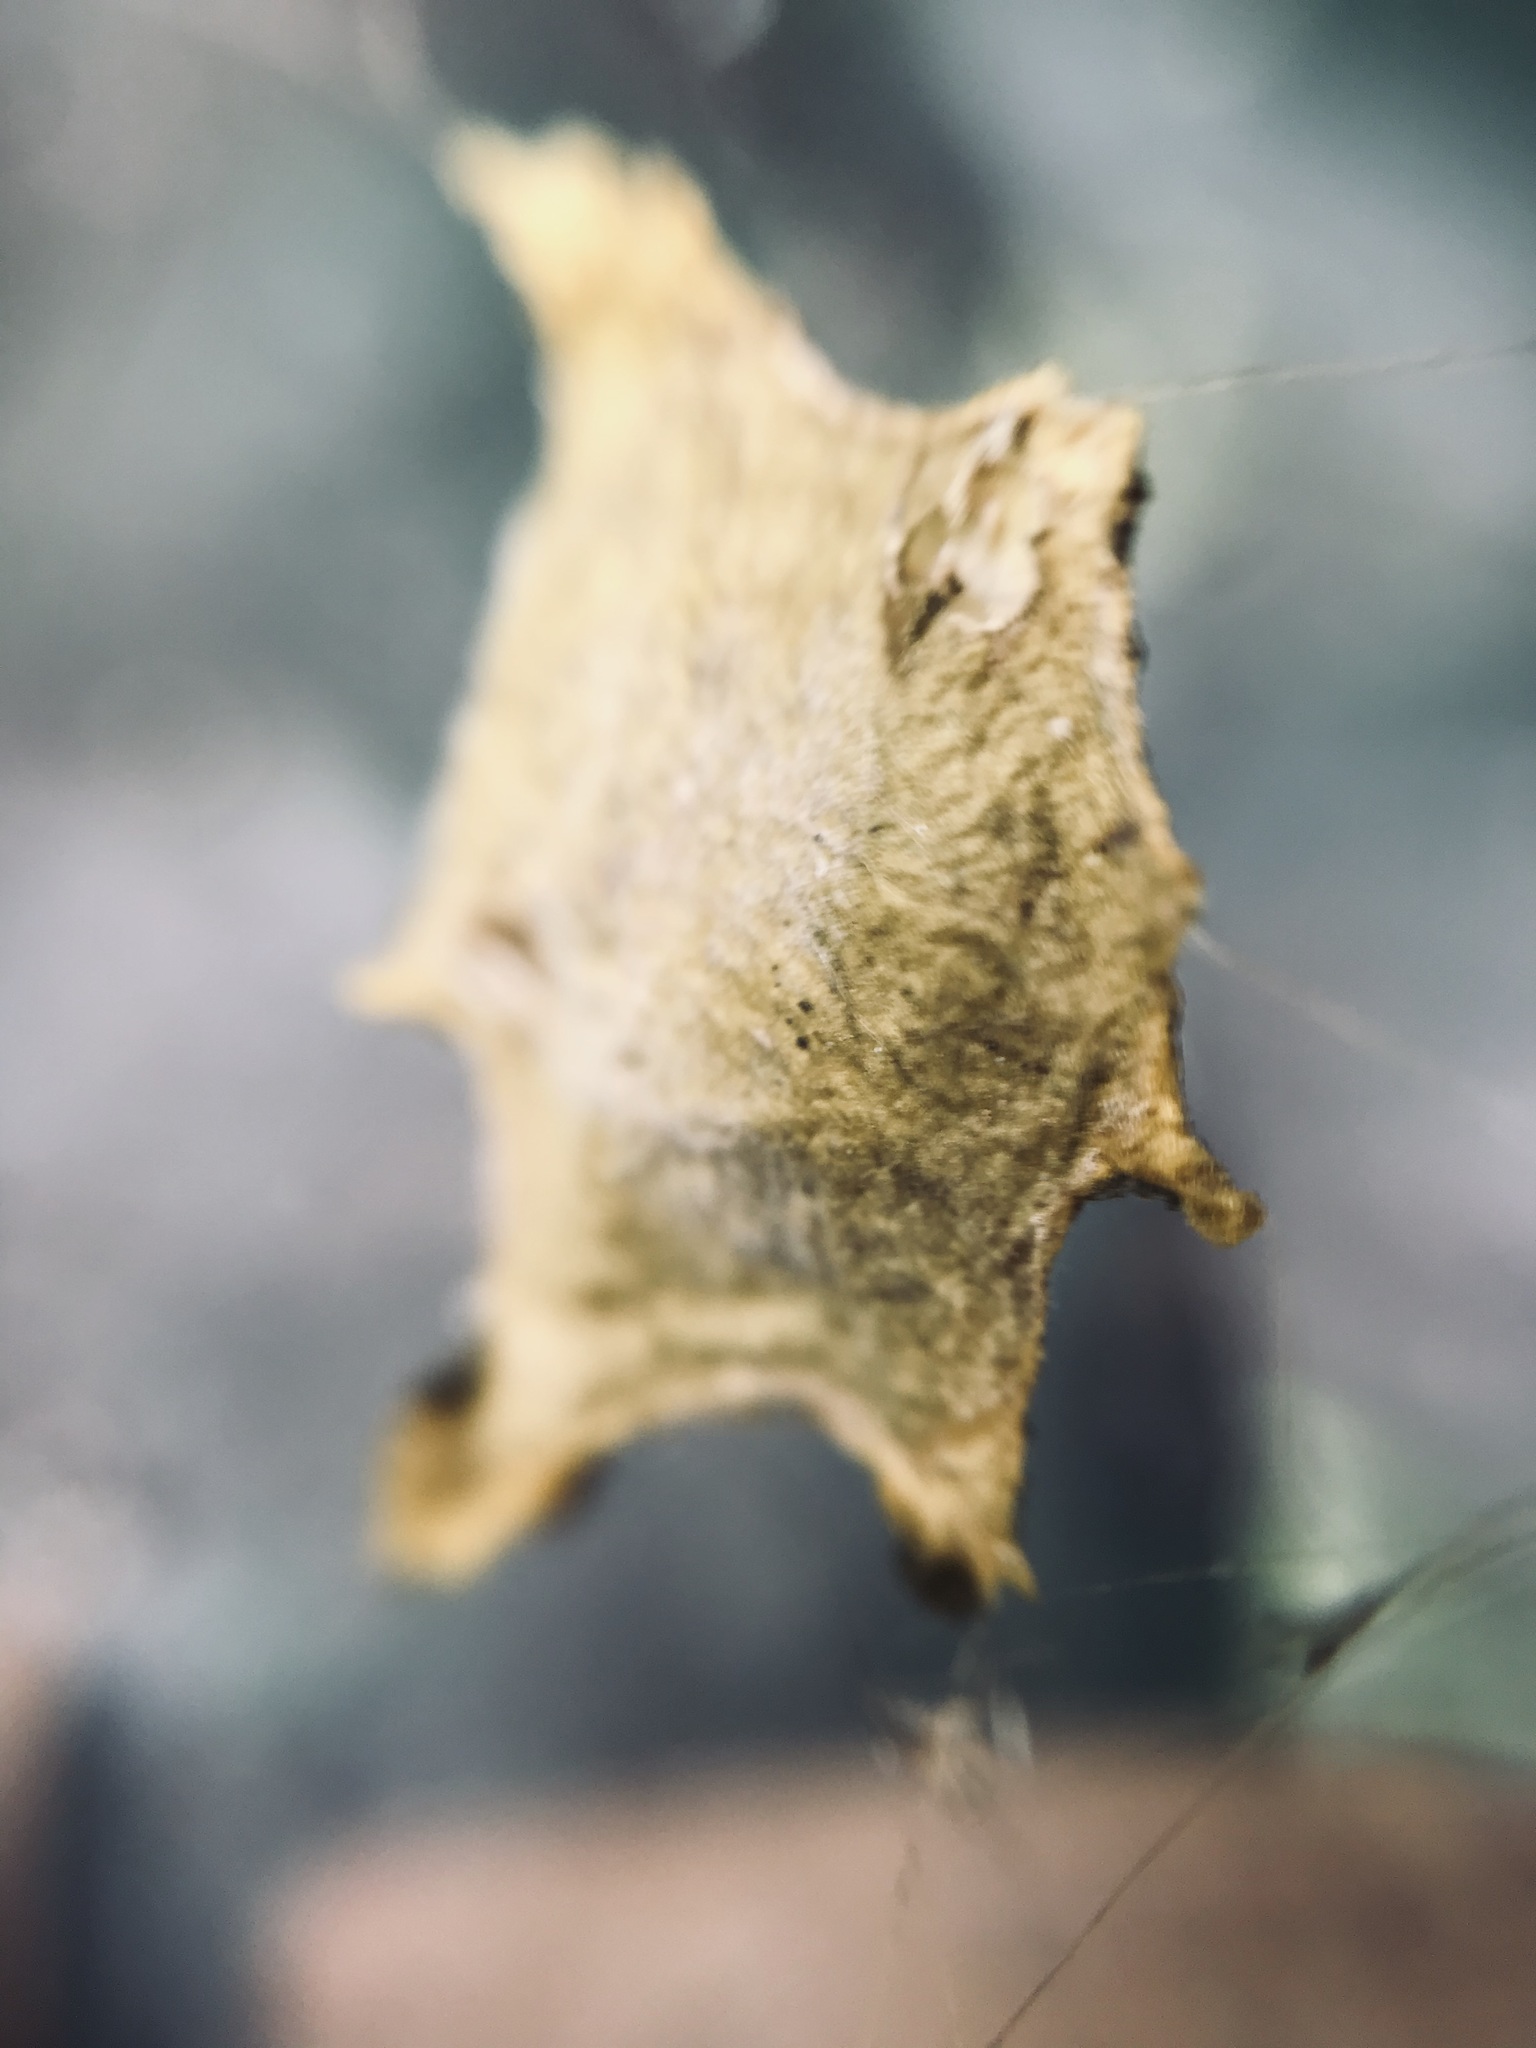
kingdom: Animalia
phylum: Arthropoda
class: Arachnida
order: Araneae
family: Araneidae
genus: Argiope
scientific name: Argiope argentata
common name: Orb weavers
